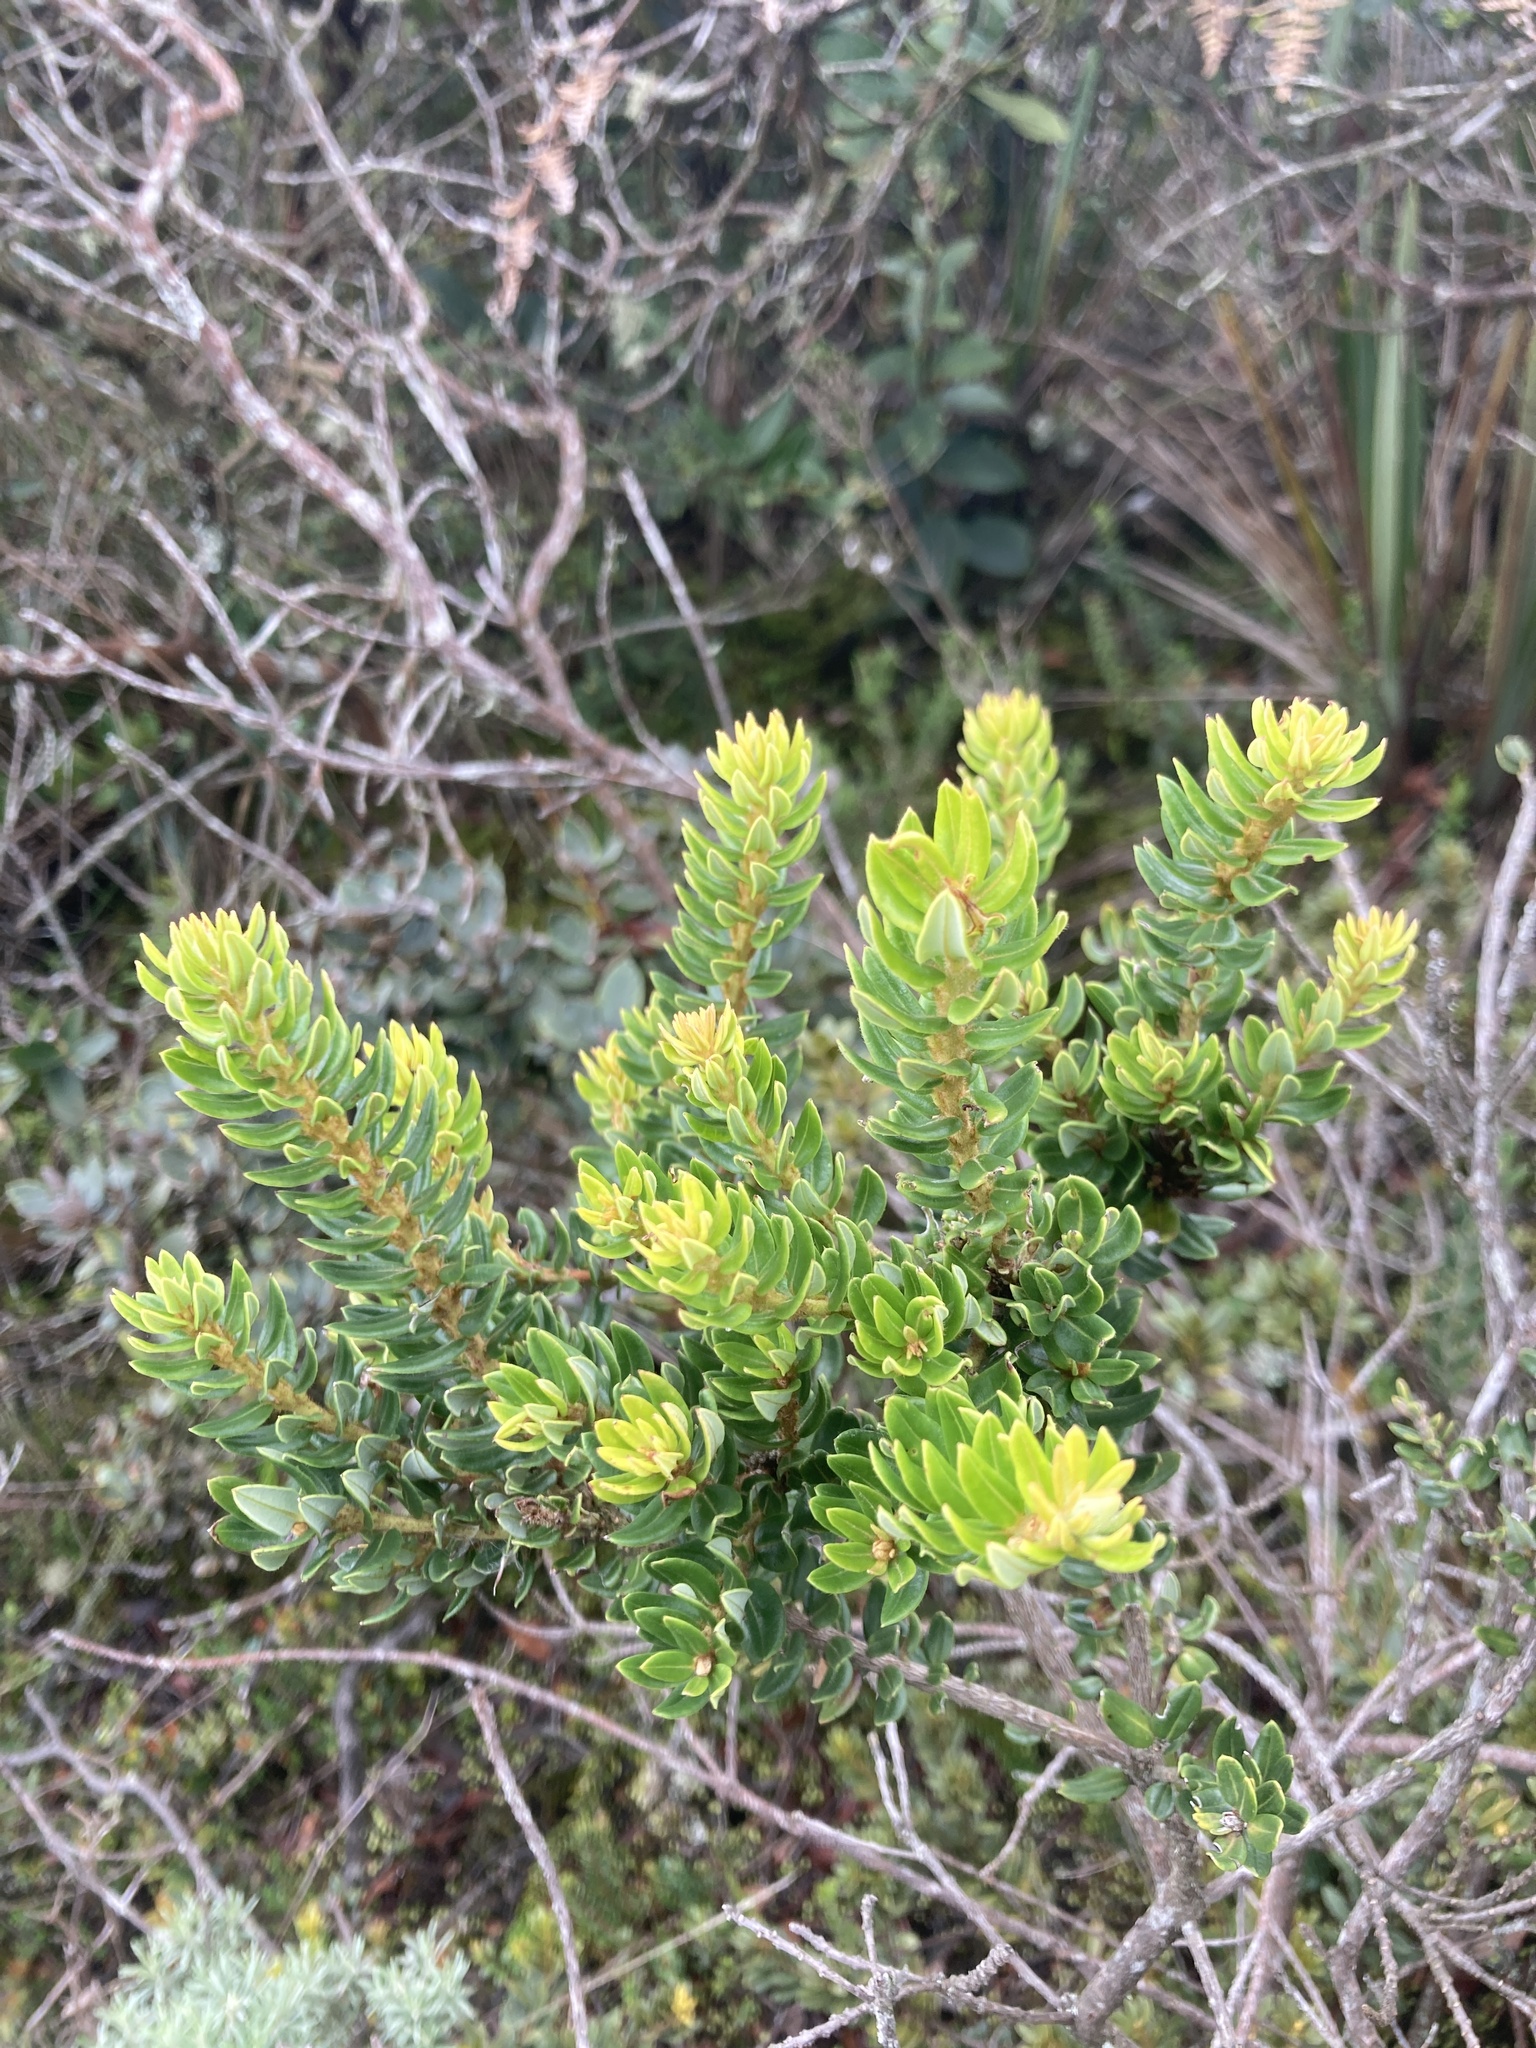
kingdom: Plantae
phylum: Tracheophyta
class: Magnoliopsida
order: Ericales
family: Ericaceae
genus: Bejaria
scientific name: Bejaria resinosa
